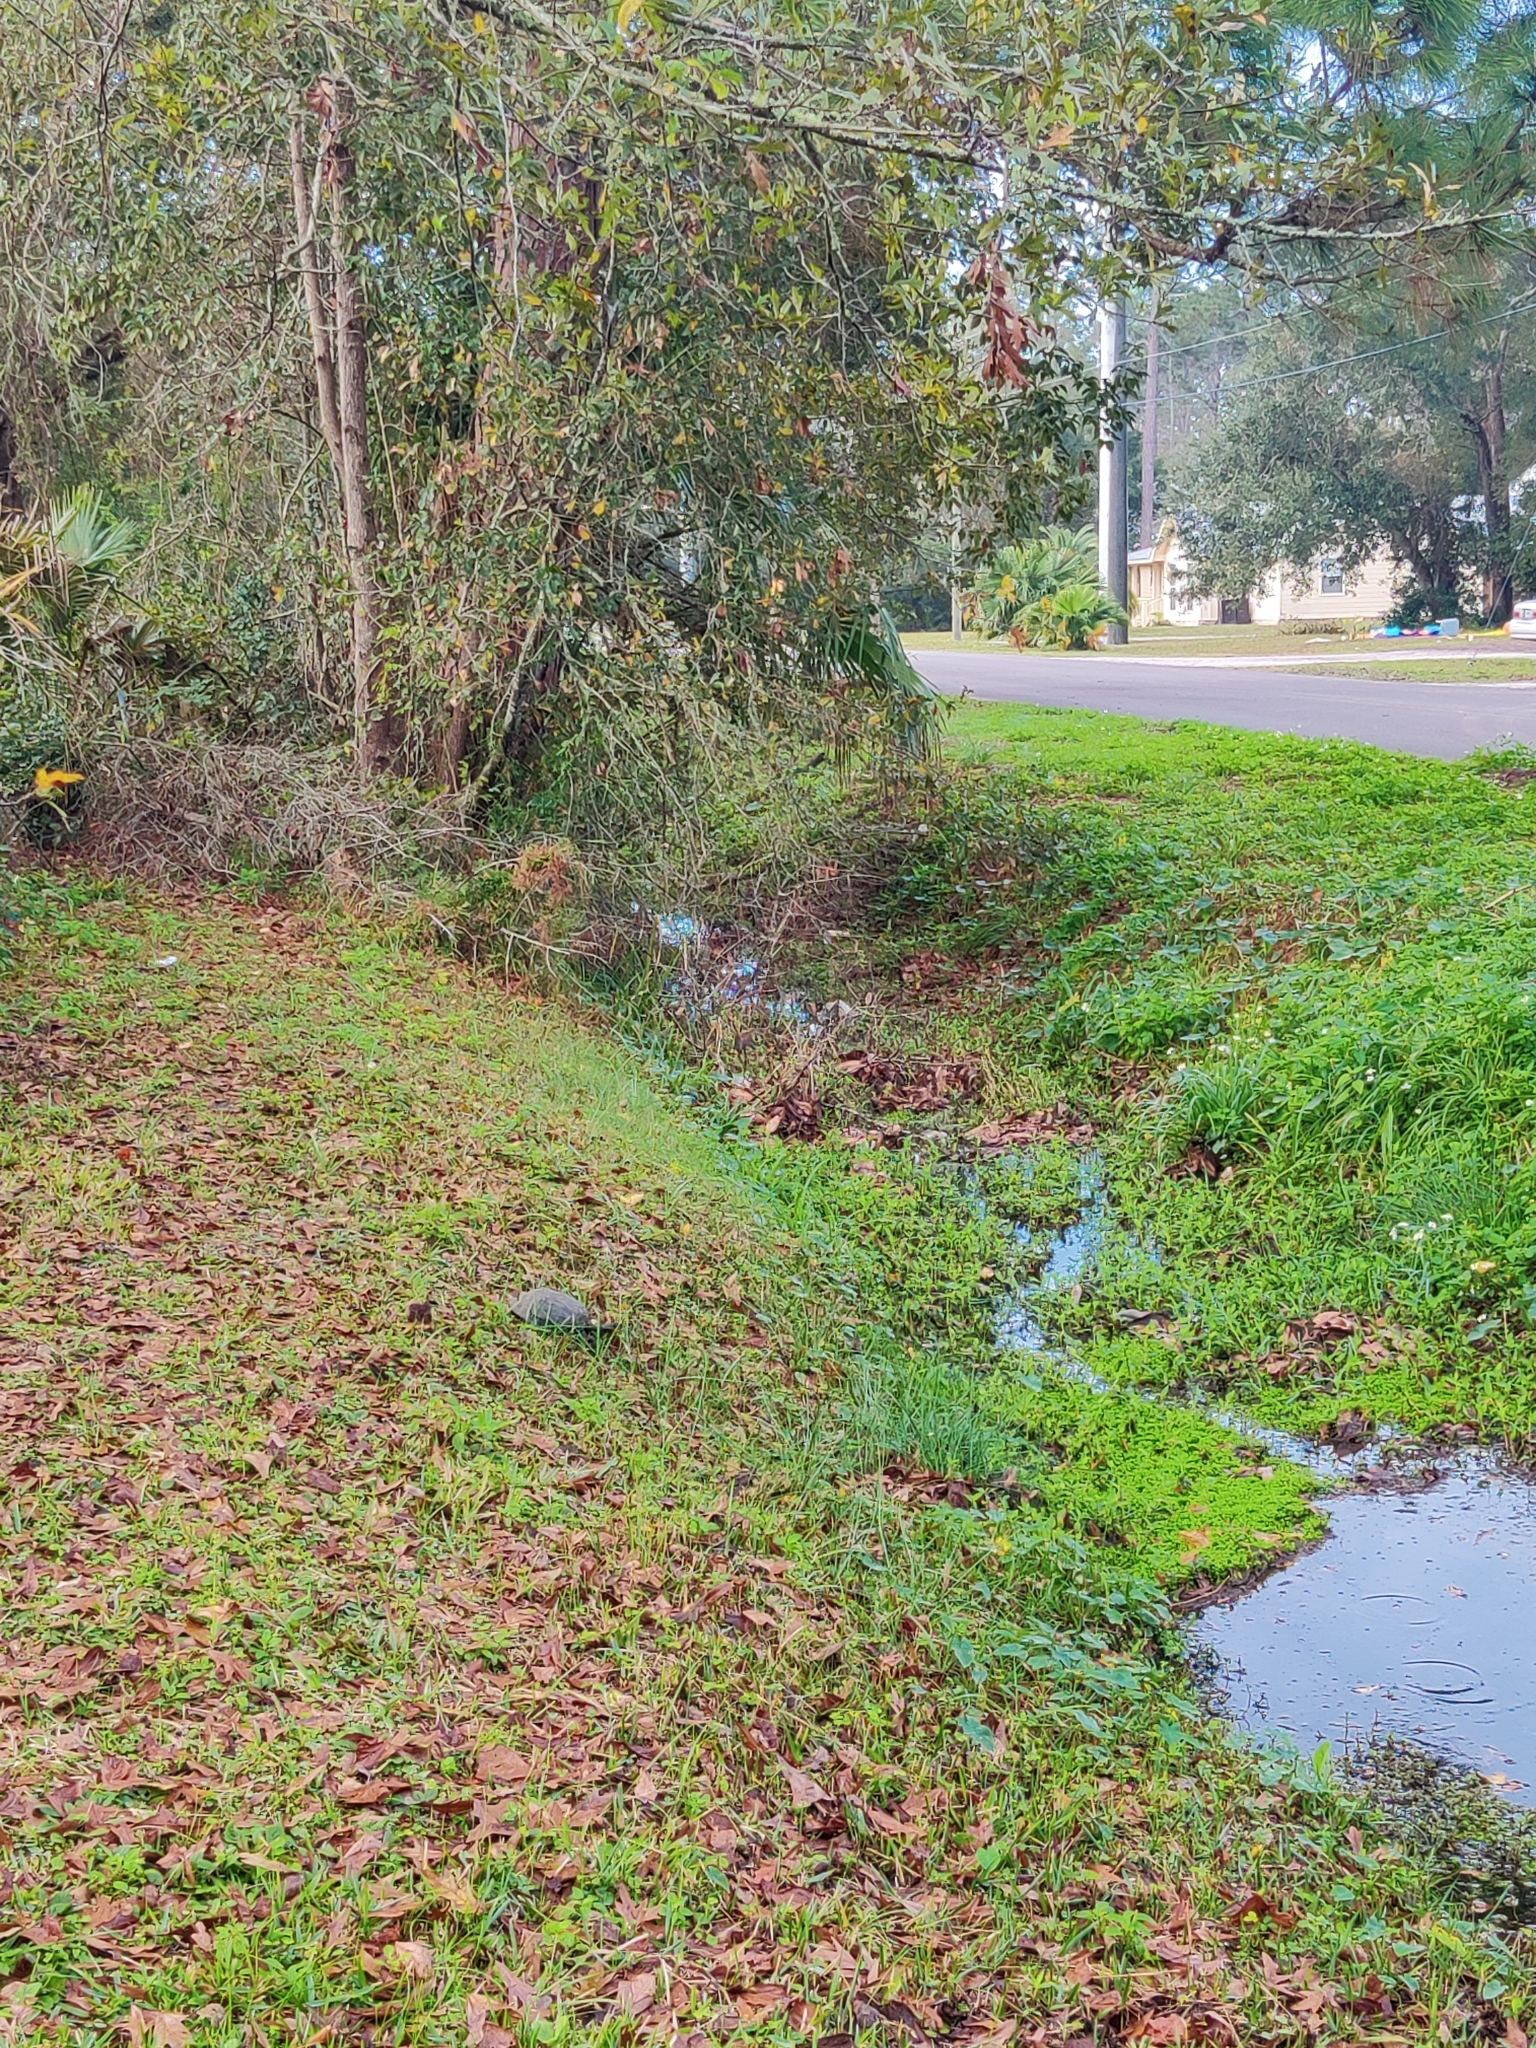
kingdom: Animalia
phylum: Chordata
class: Testudines
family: Emydidae
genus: Terrapene
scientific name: Terrapene carolina
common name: Common box turtle
